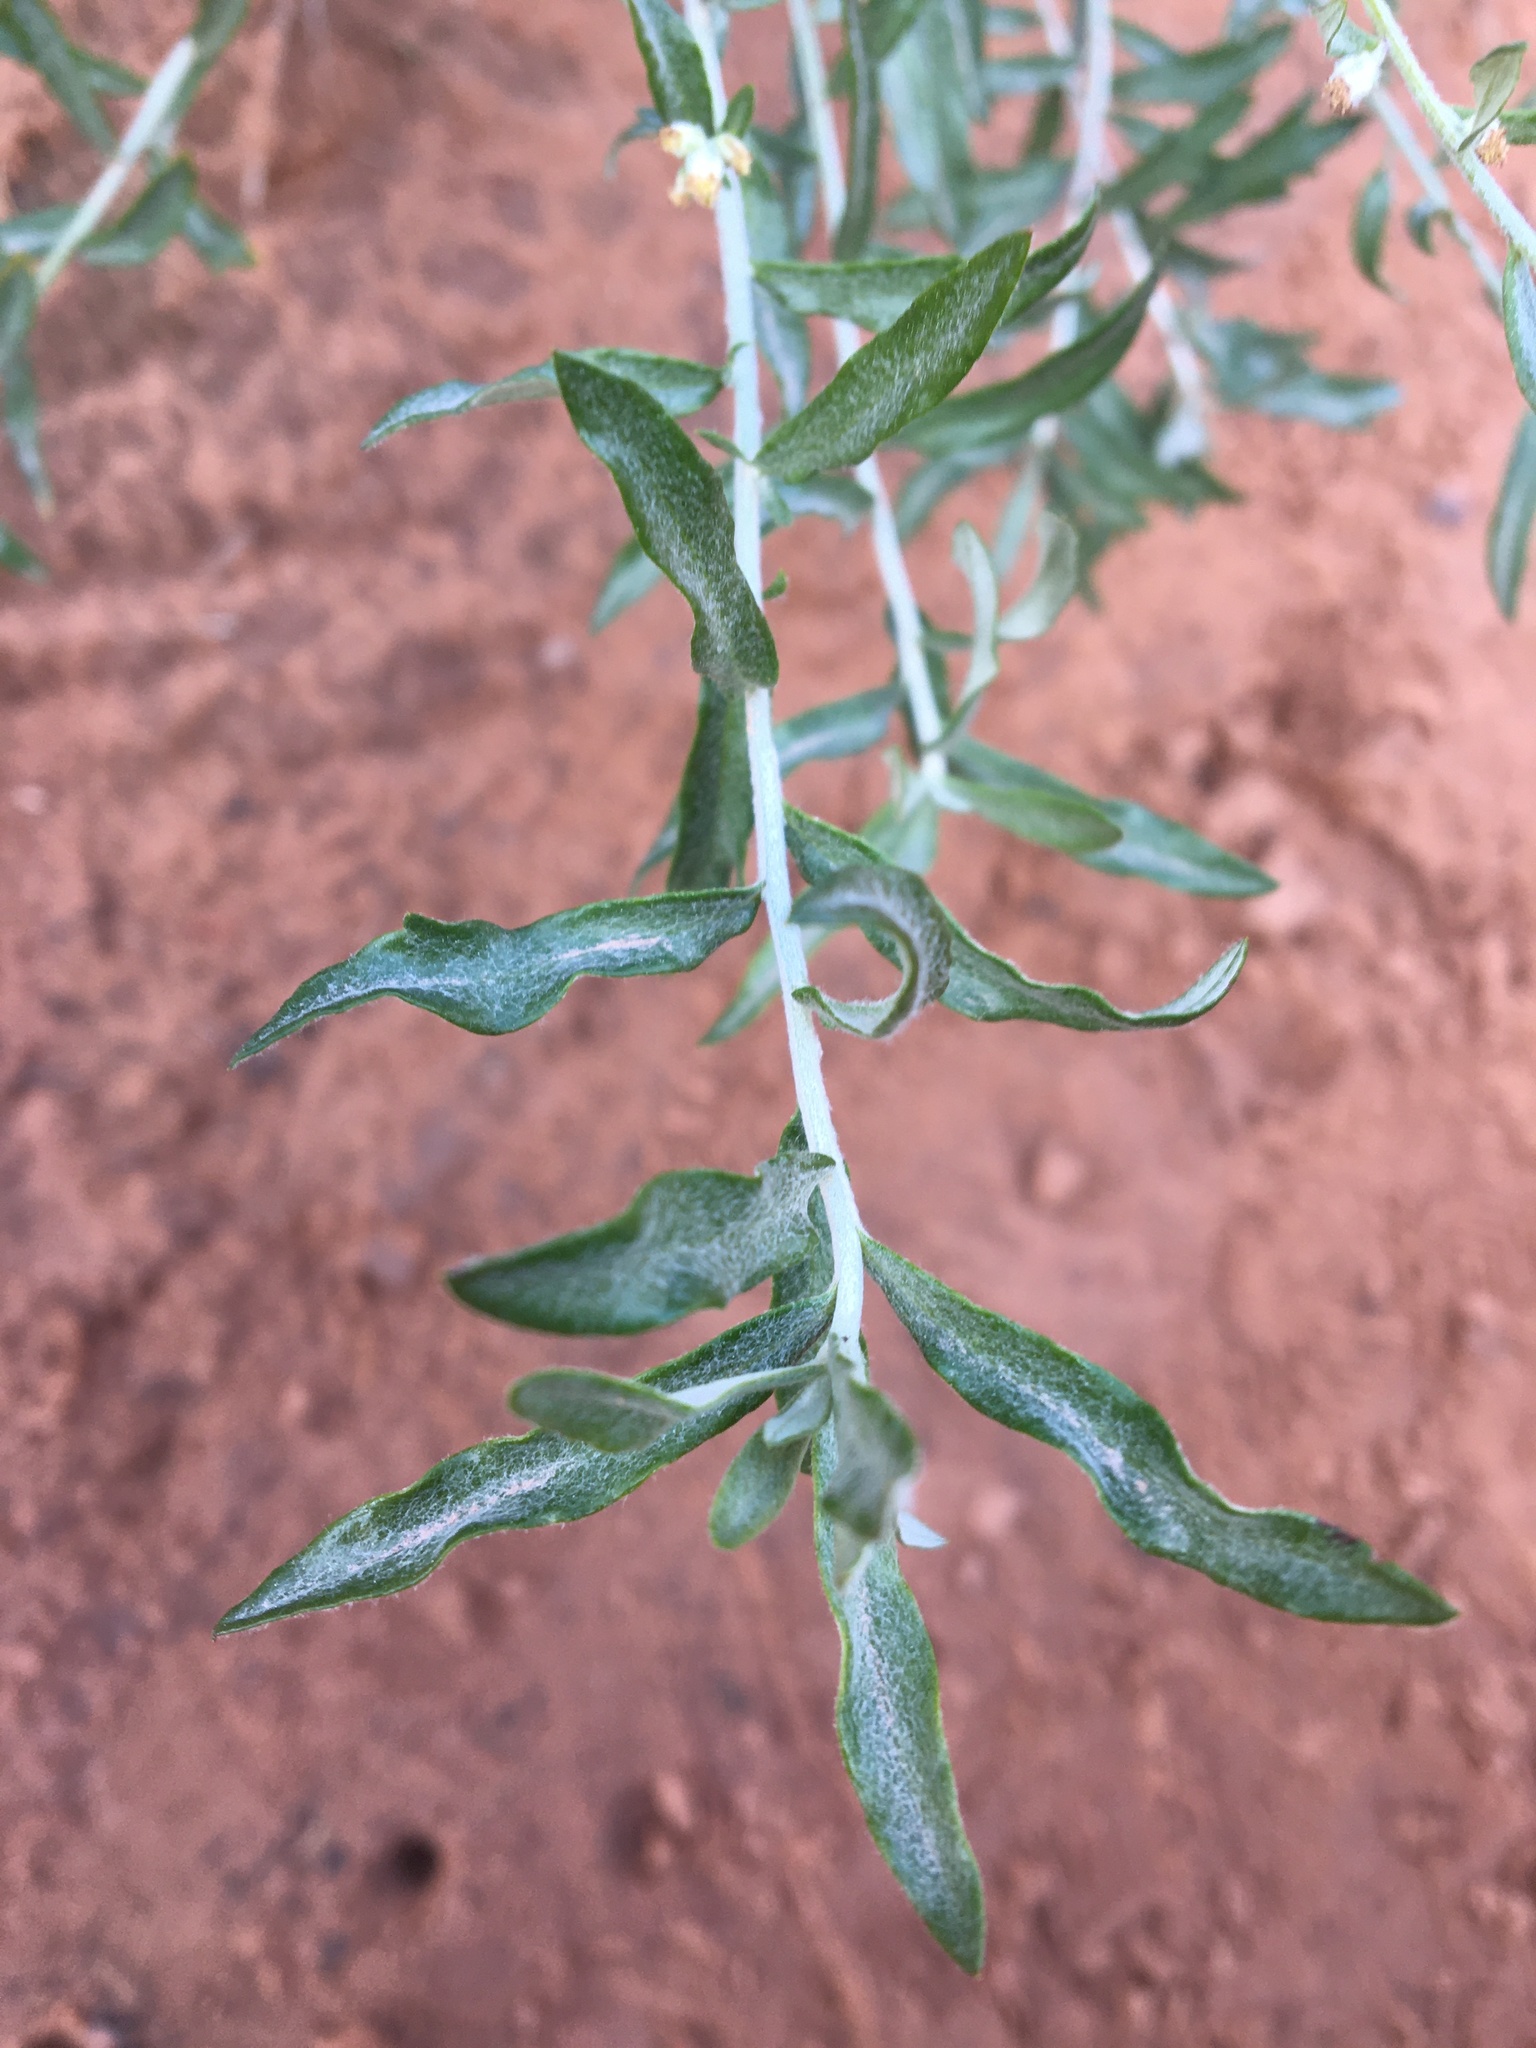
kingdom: Plantae
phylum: Tracheophyta
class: Magnoliopsida
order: Asterales
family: Asteraceae
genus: Artemisia
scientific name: Artemisia ludoviciana
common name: Western mugwort
